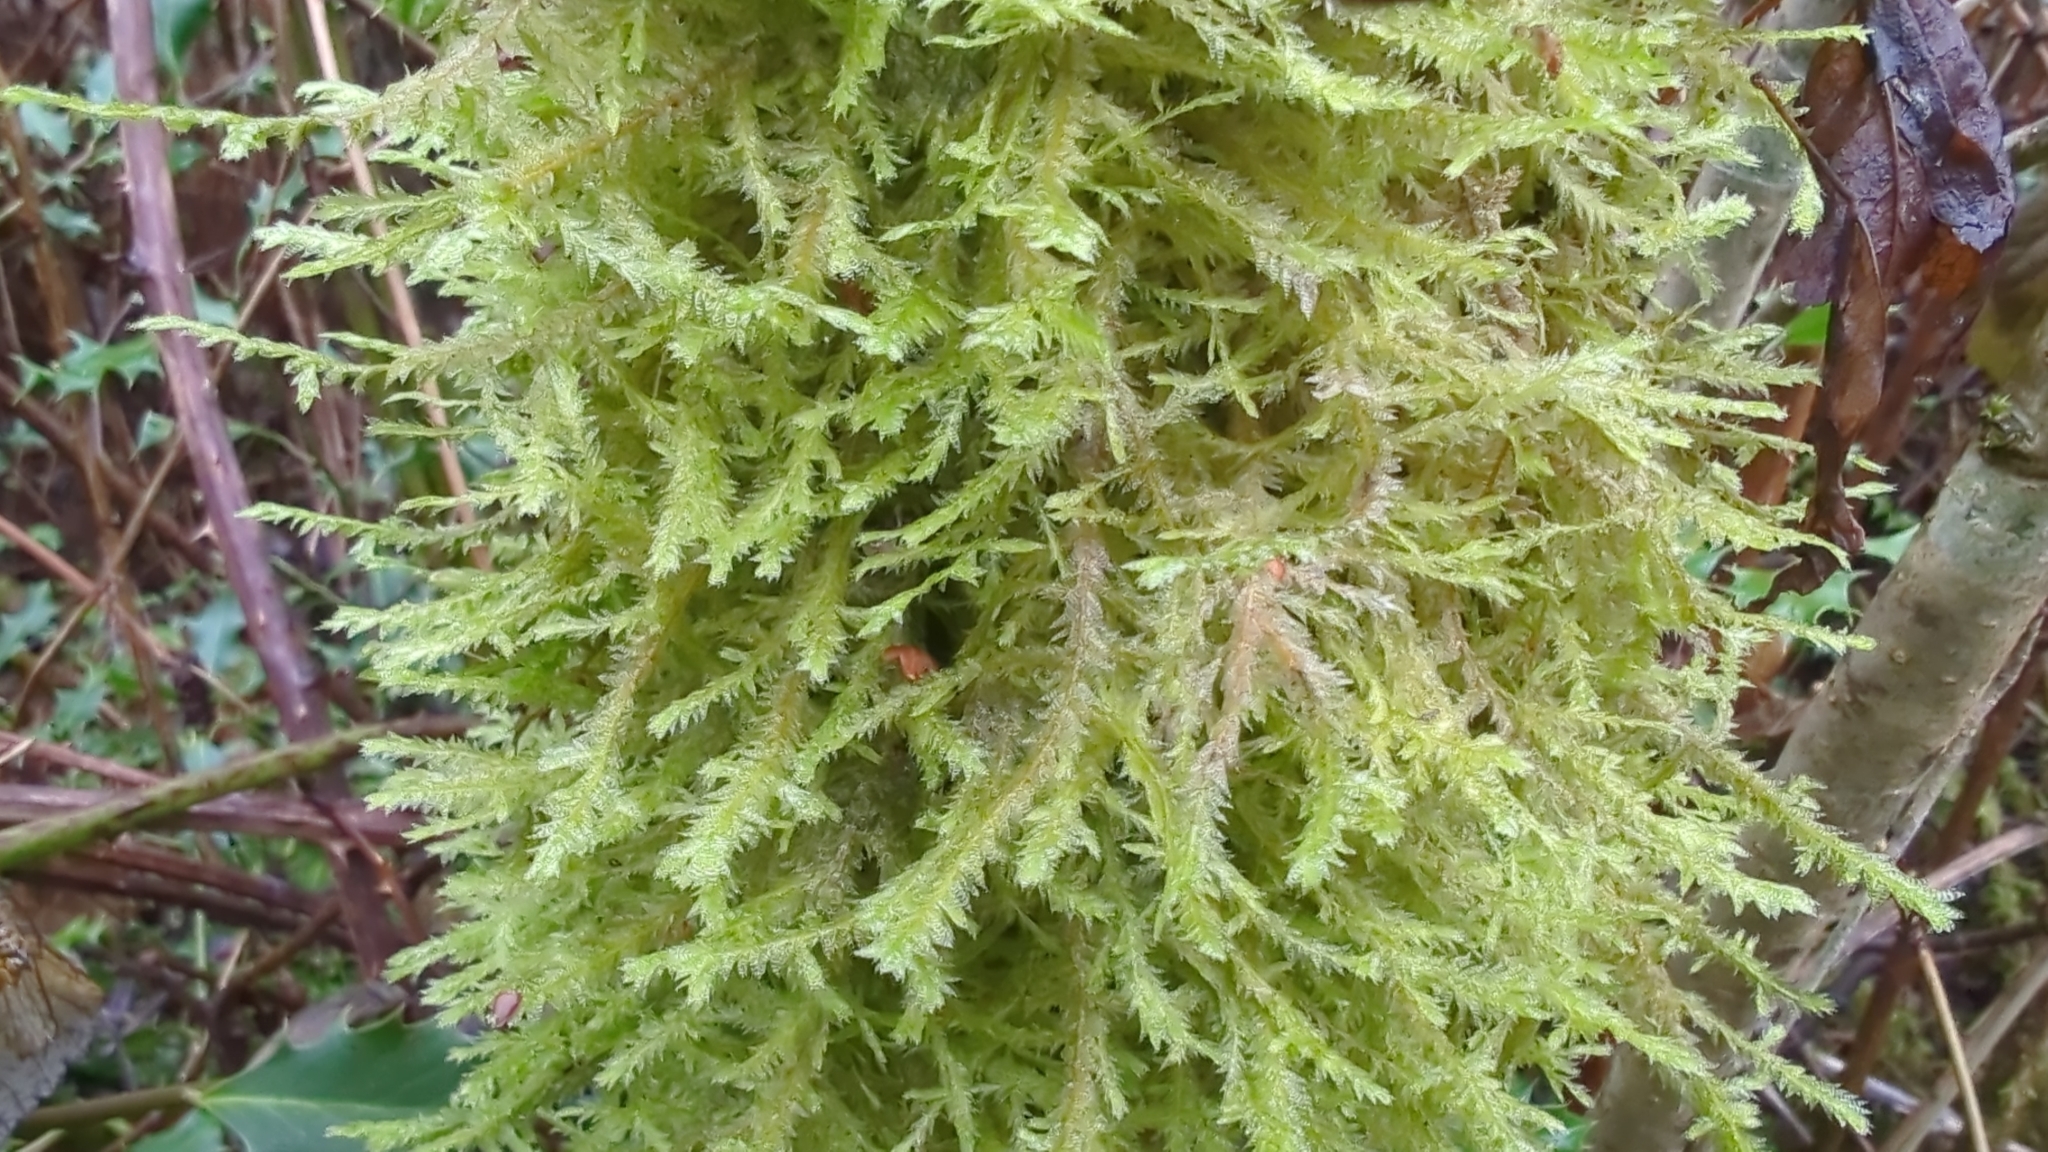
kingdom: Plantae
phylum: Bryophyta
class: Bryopsida
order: Hypnales
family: Neckeraceae
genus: Neckera
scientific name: Neckera douglasii
